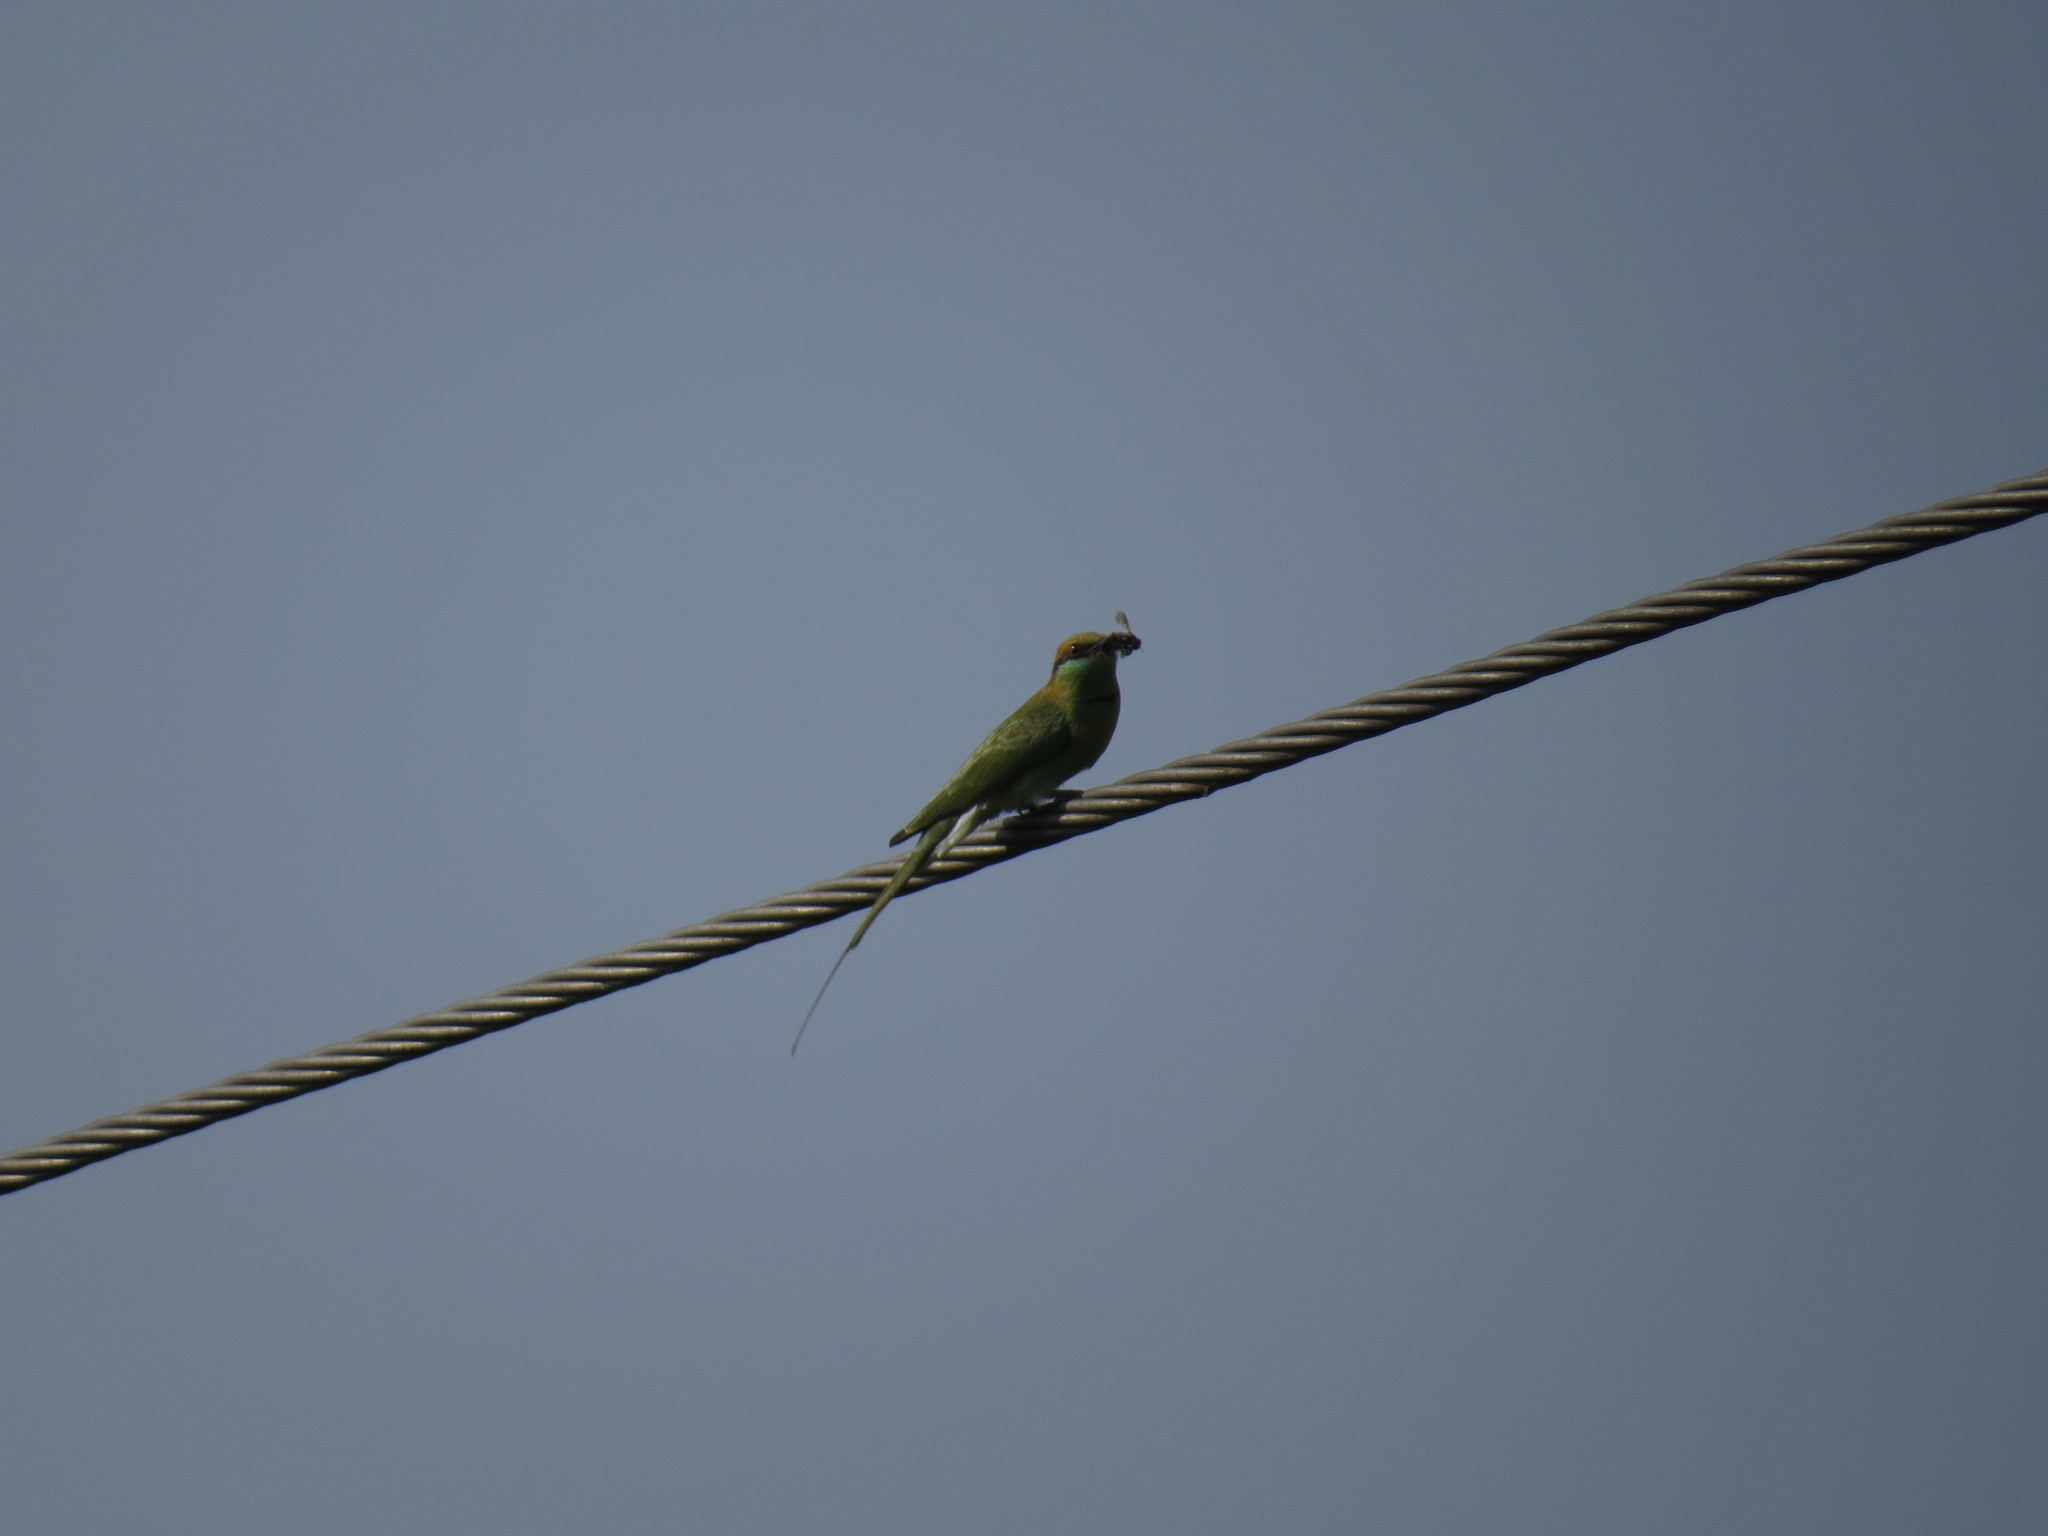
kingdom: Animalia
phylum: Chordata
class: Aves
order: Coraciiformes
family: Meropidae
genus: Merops
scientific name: Merops orientalis
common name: Green bee-eater
